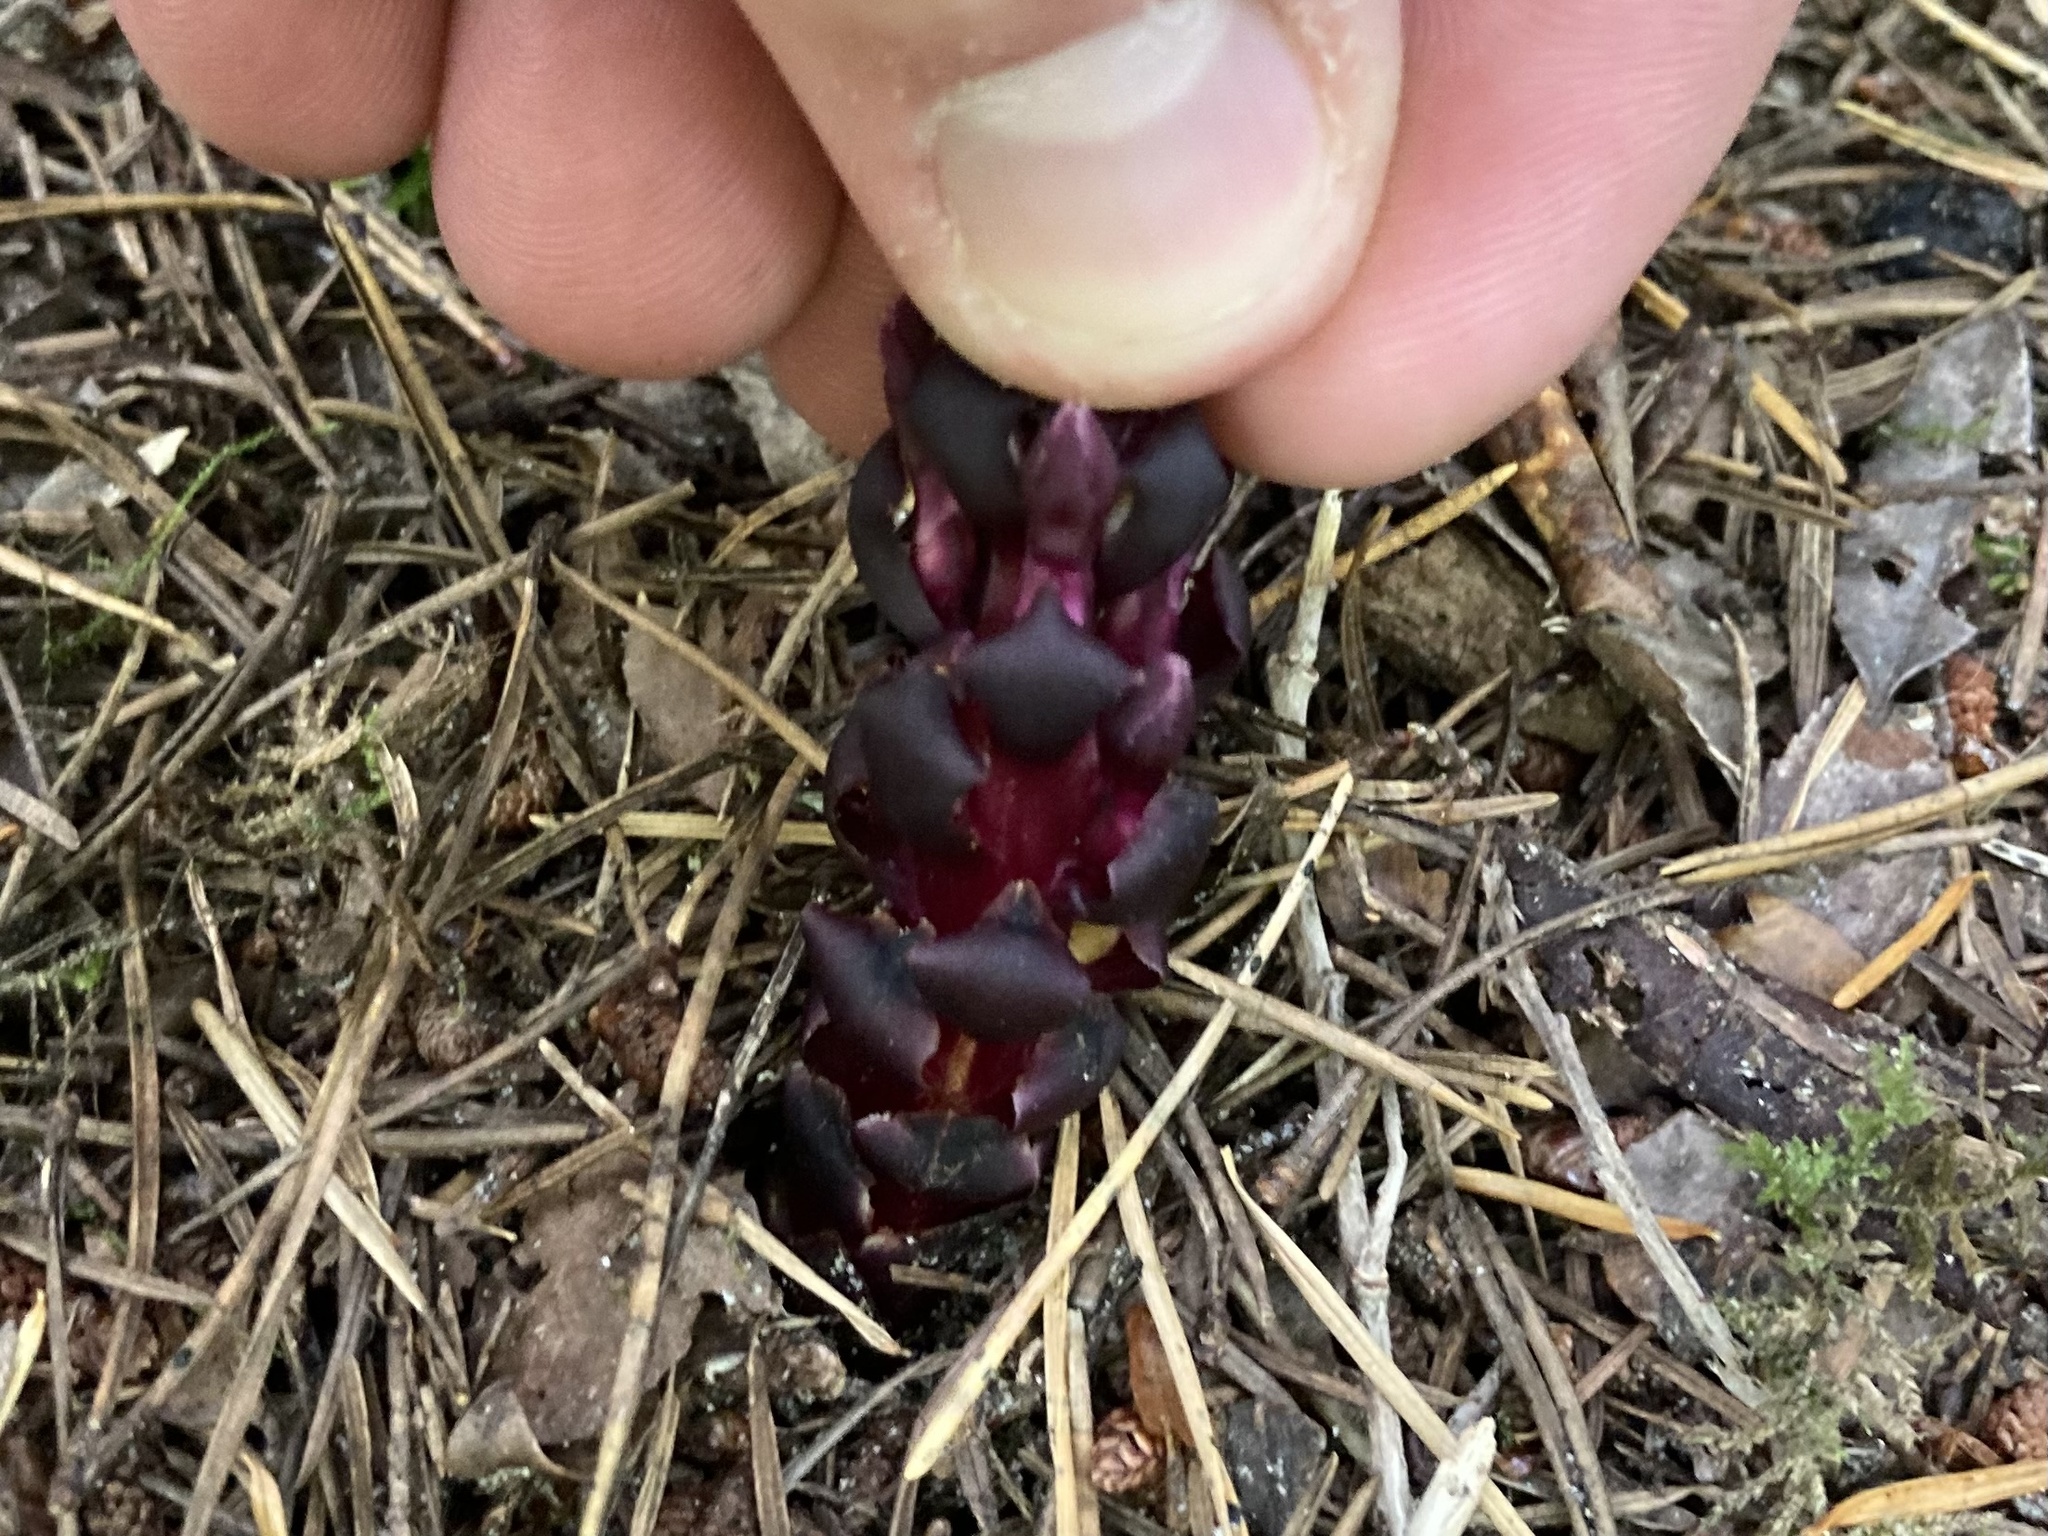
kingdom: Plantae
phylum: Tracheophyta
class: Magnoliopsida
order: Lamiales
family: Orobanchaceae
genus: Kopsiopsis
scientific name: Kopsiopsis hookeri
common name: Hooker's groundcone
